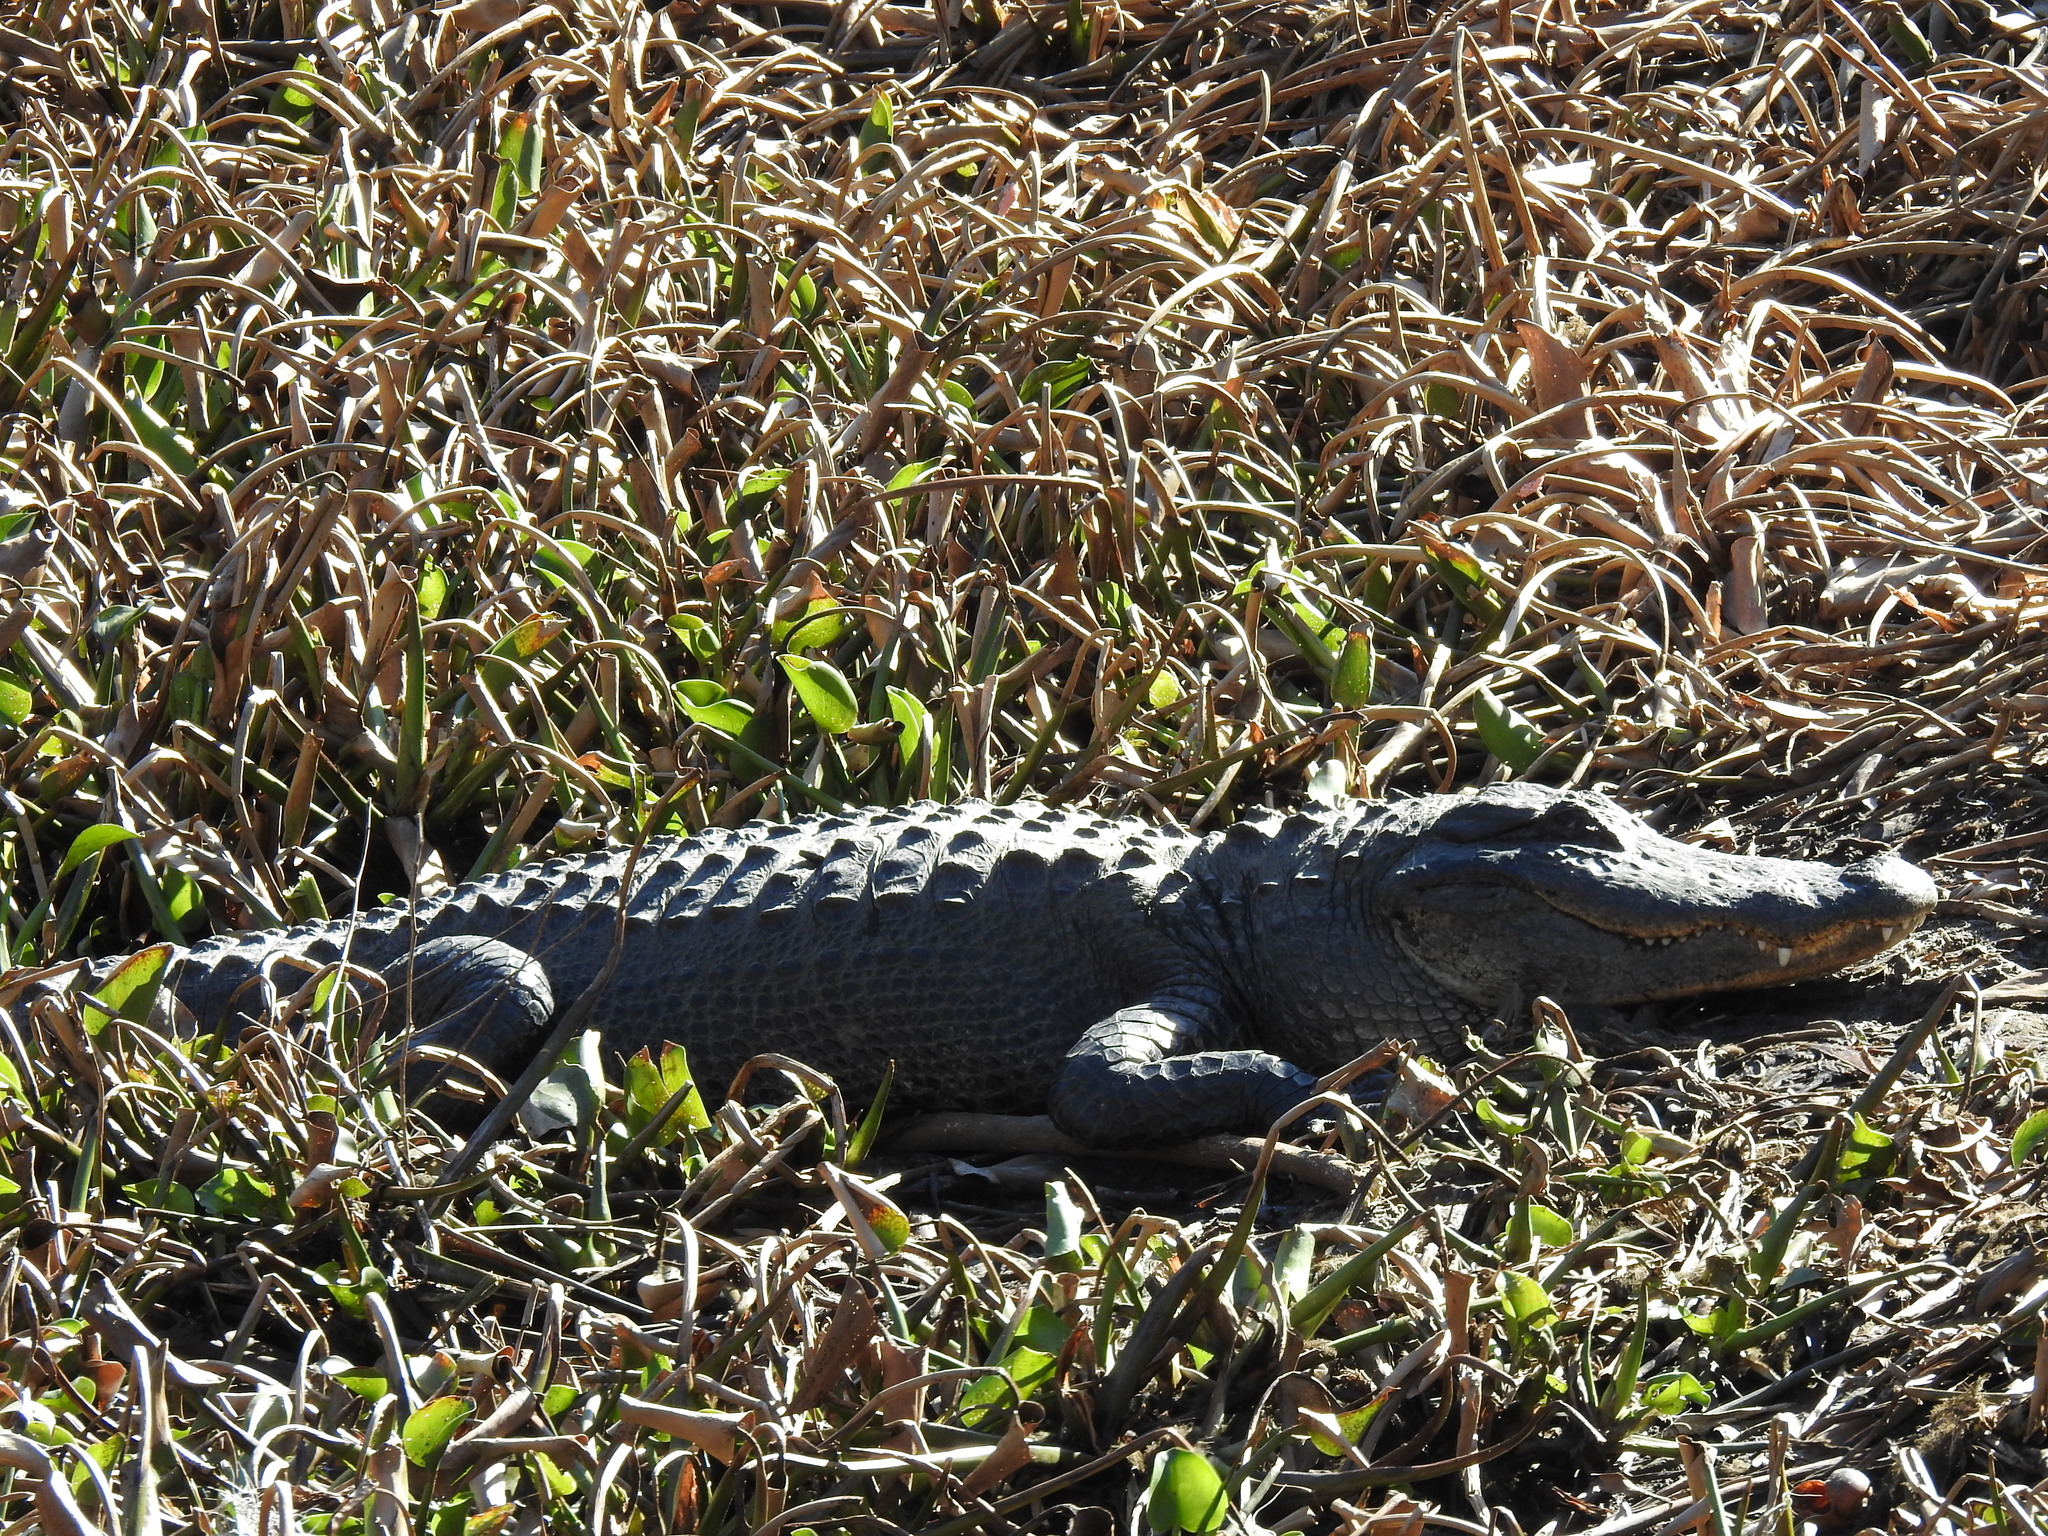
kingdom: Animalia
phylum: Chordata
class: Crocodylia
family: Alligatoridae
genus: Alligator
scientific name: Alligator mississippiensis
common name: American alligator
